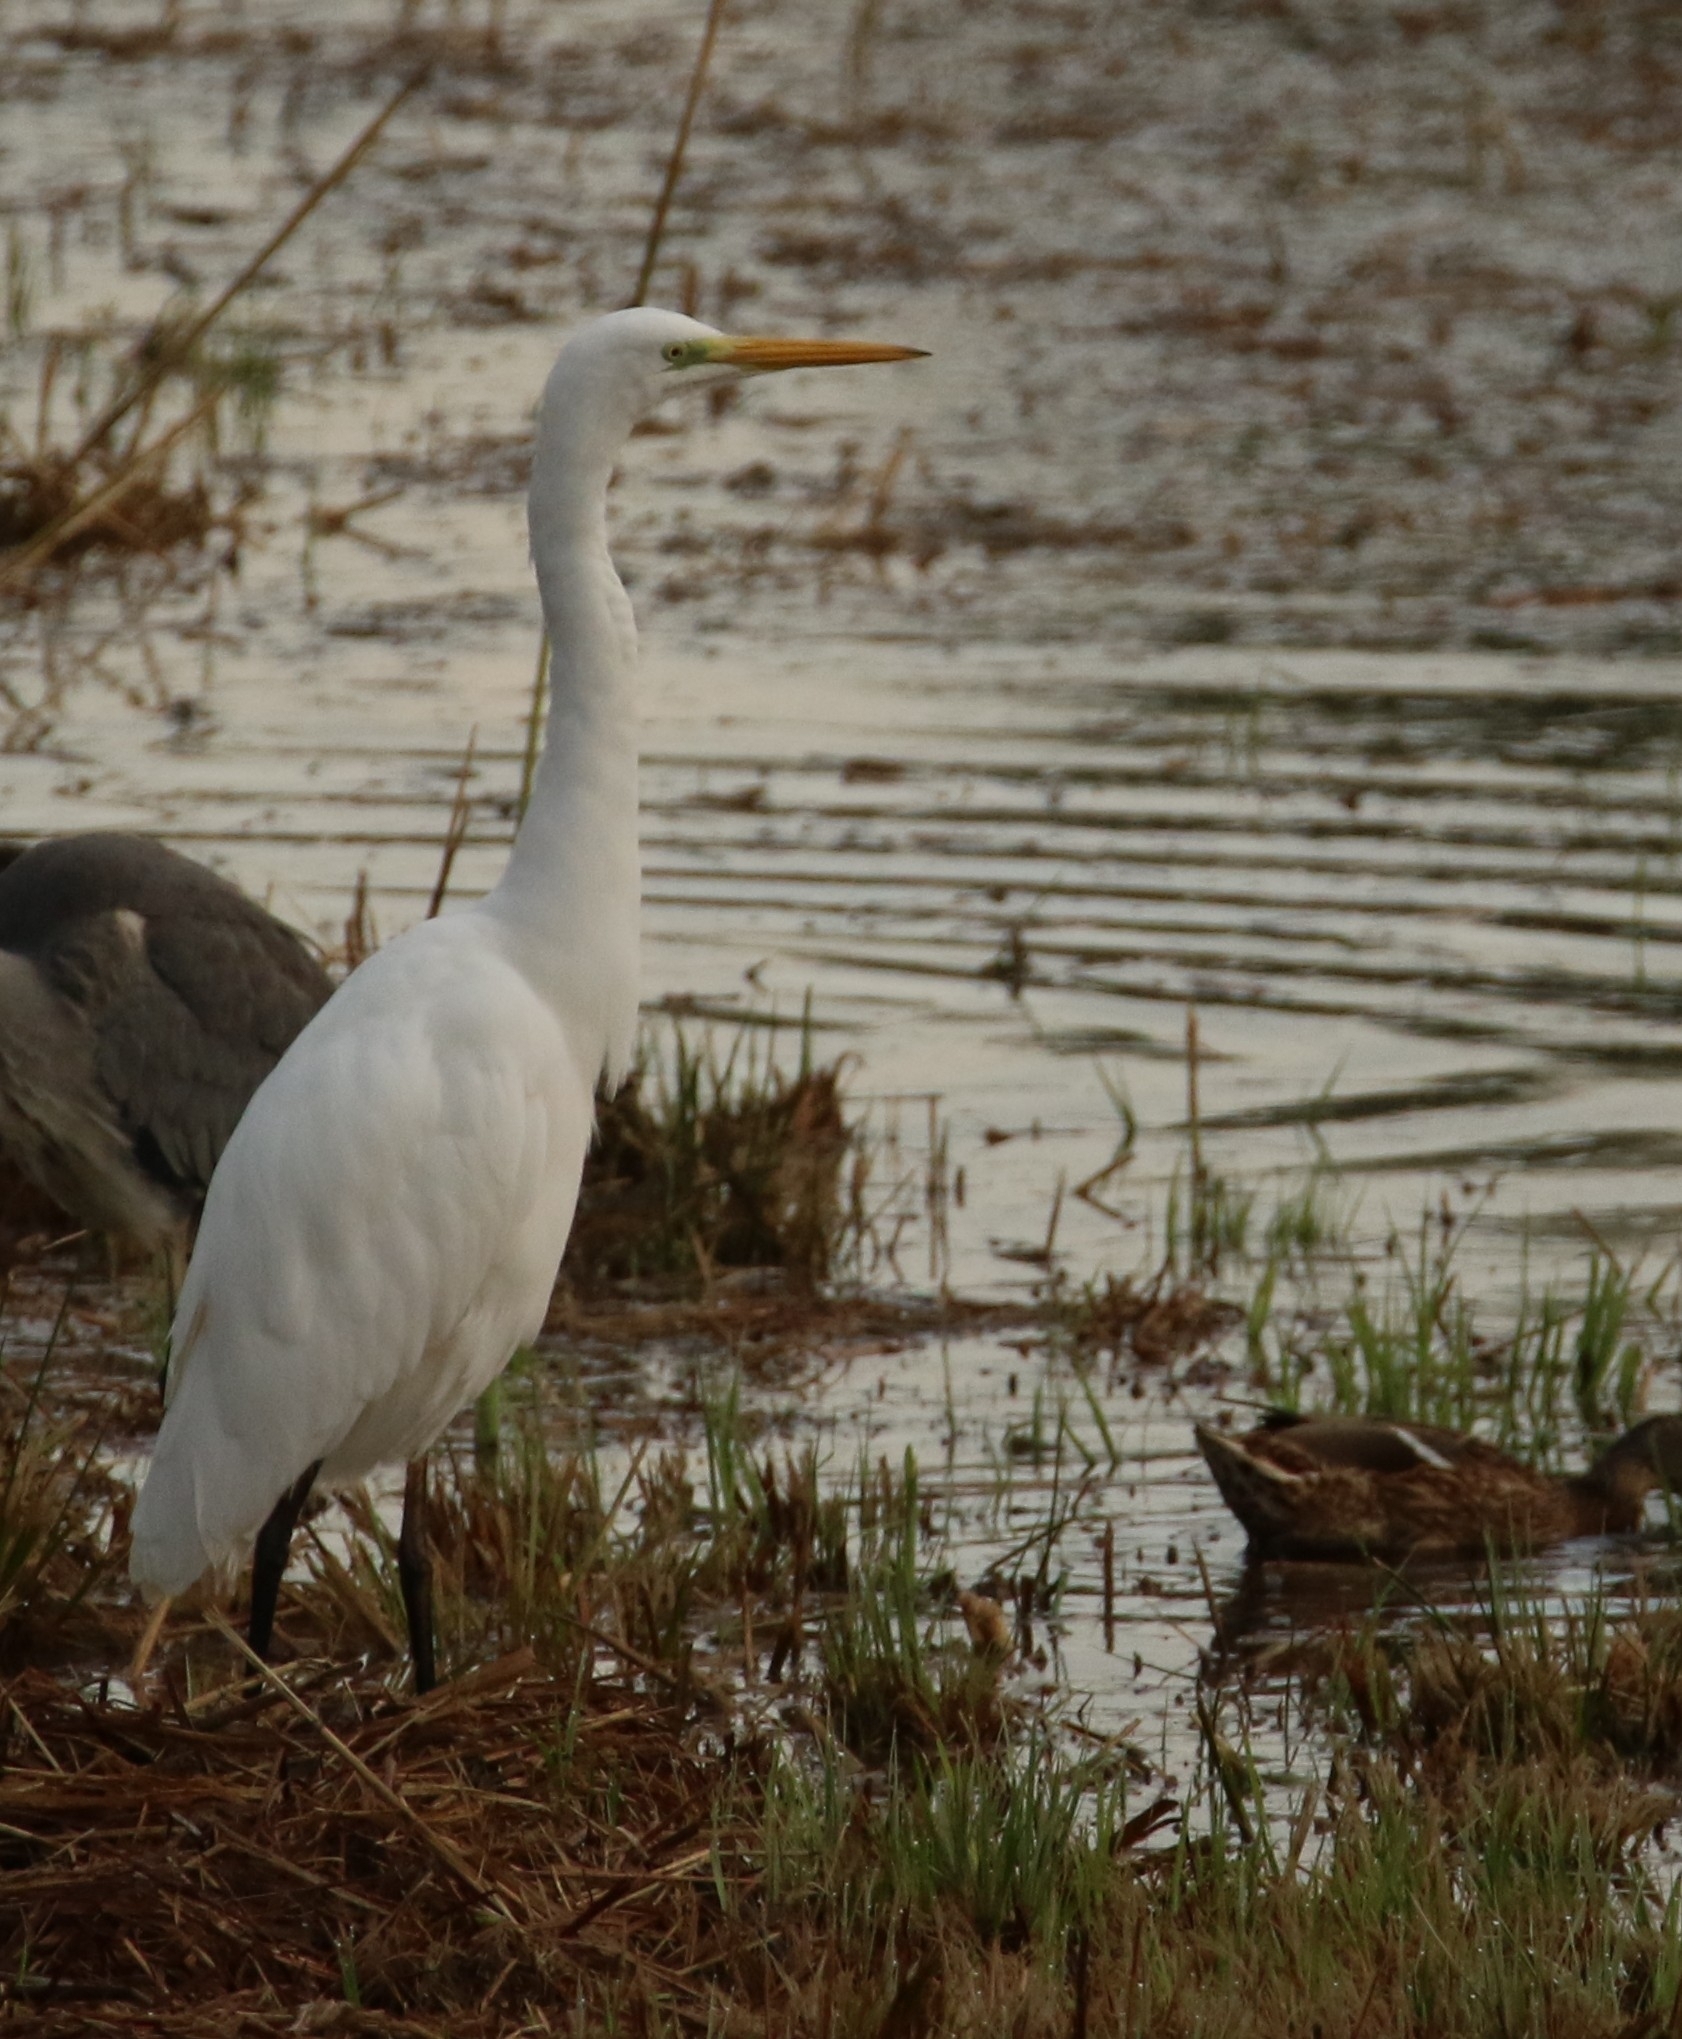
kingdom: Animalia
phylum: Chordata
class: Aves
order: Pelecaniformes
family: Ardeidae
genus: Ardea
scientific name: Ardea alba
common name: Great egret
